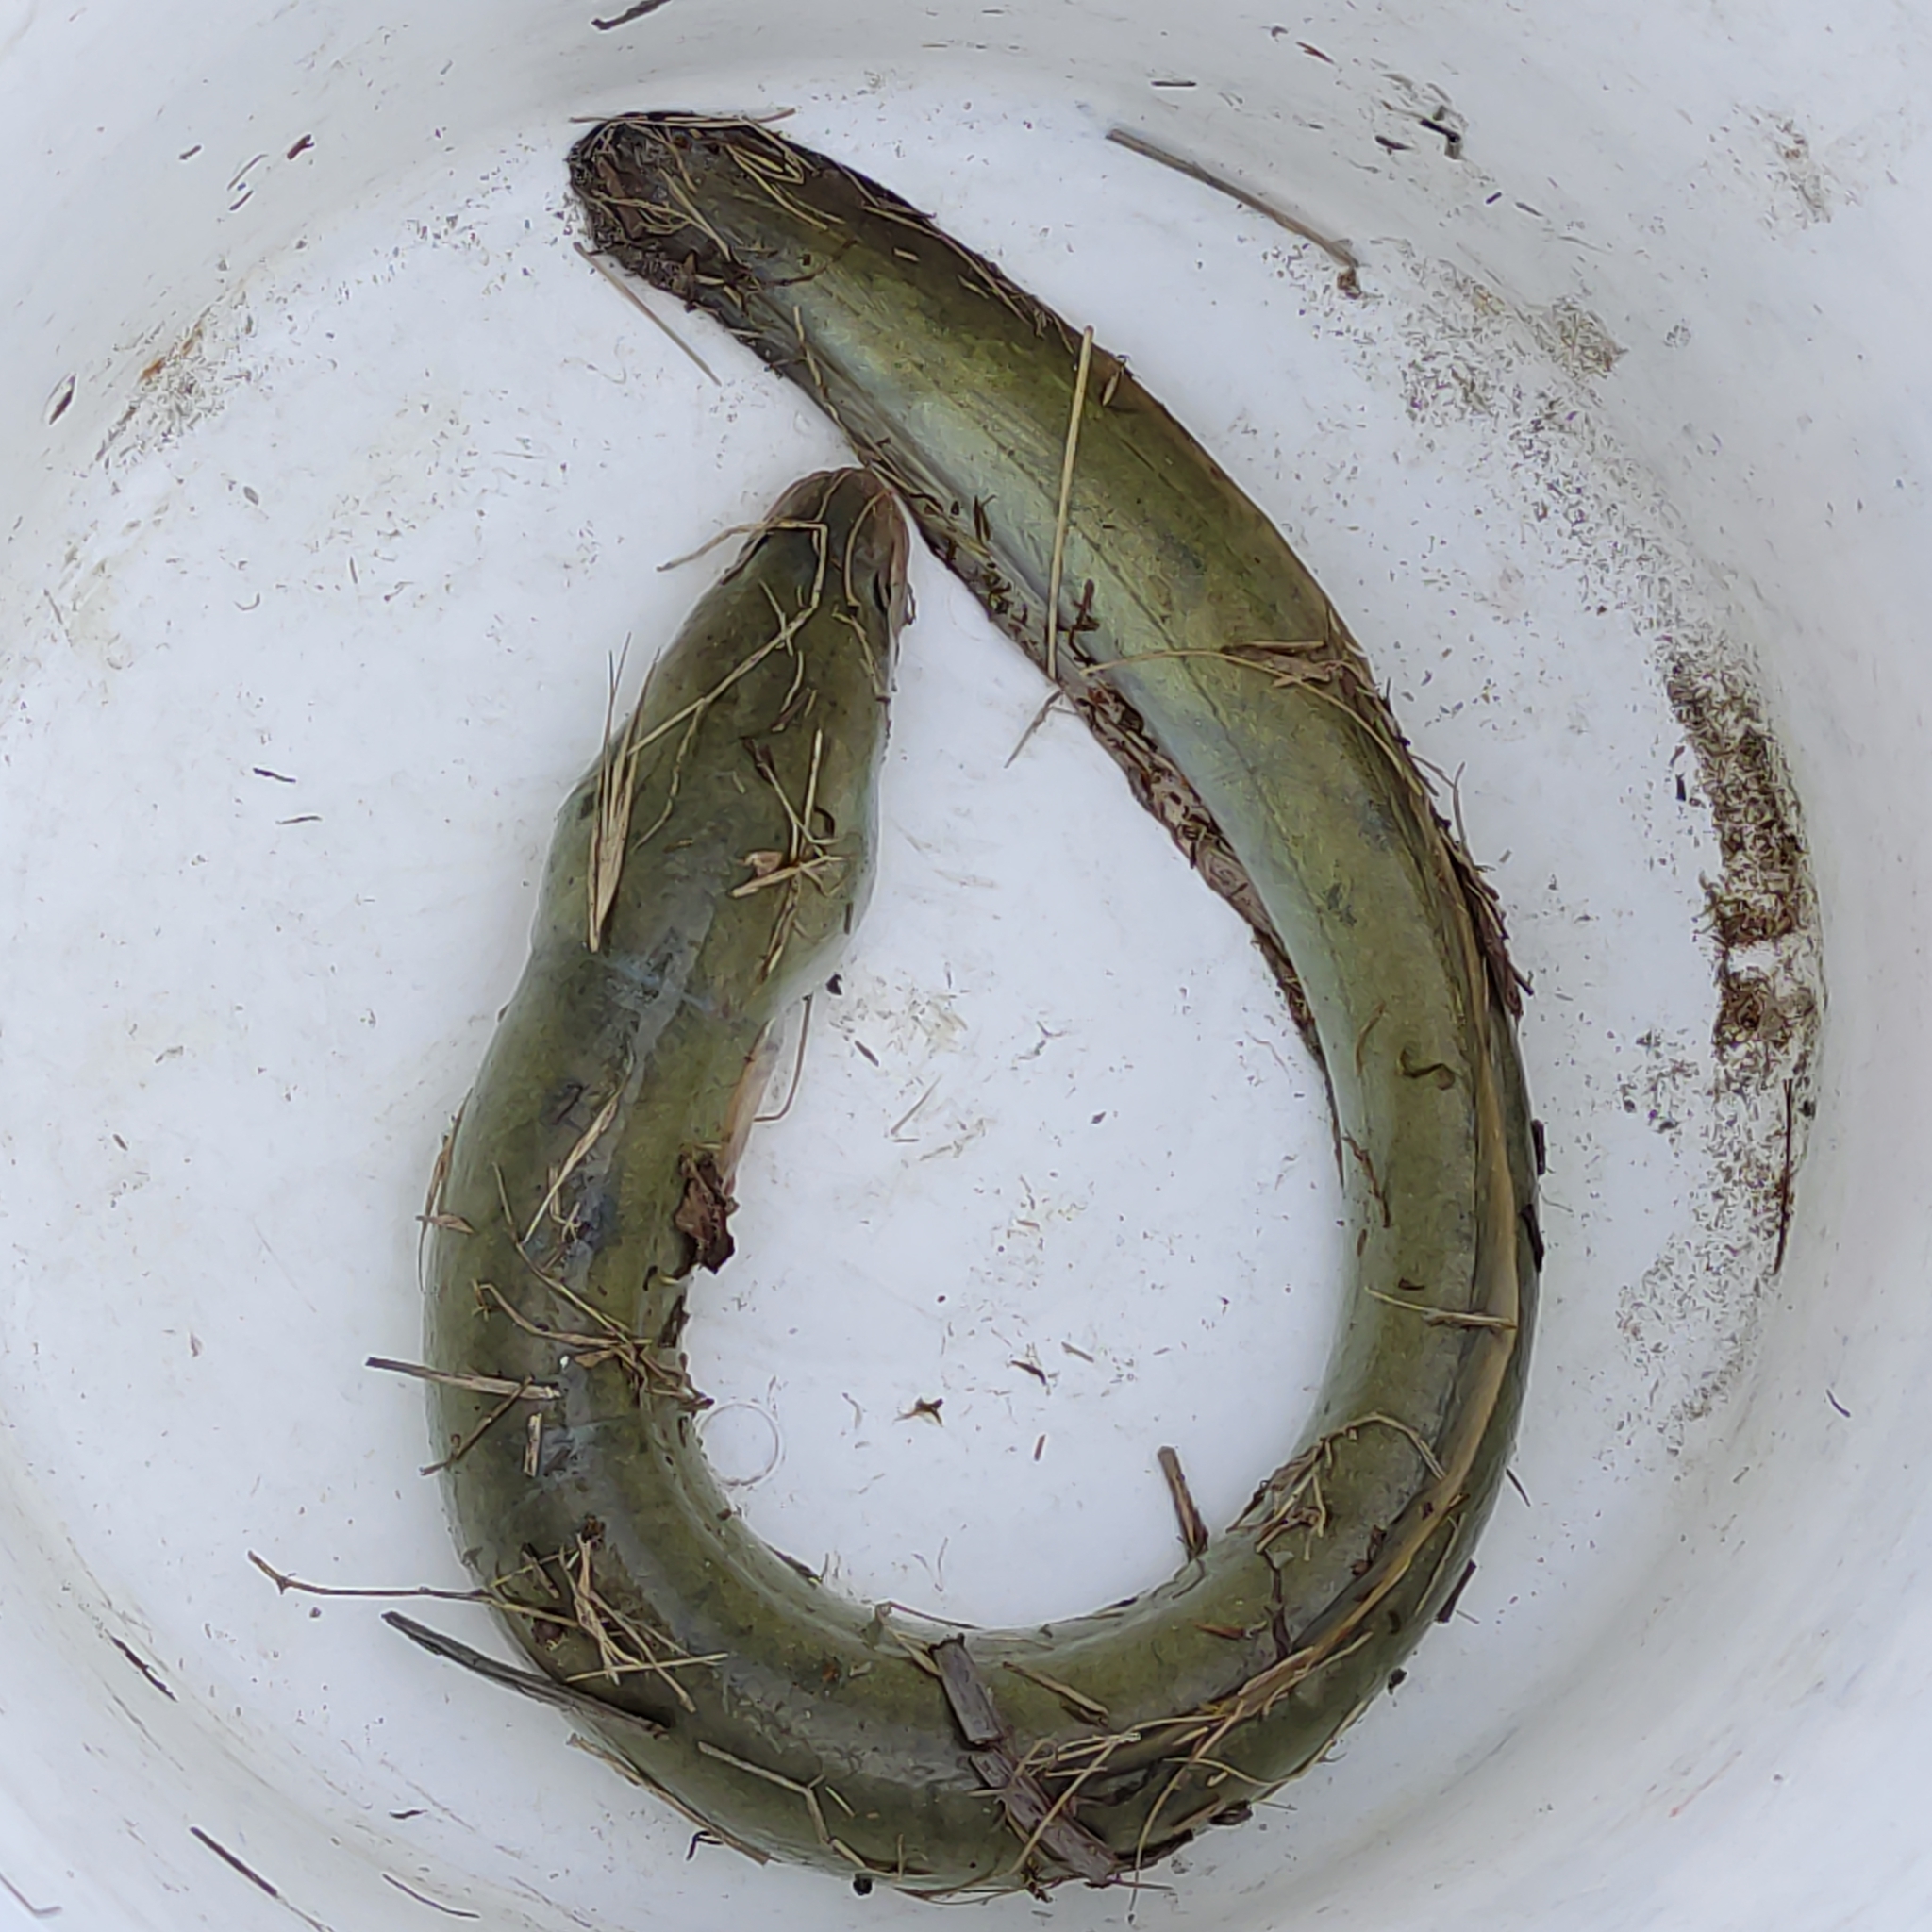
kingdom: Animalia
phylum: Chordata
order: Anguilliformes
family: Anguillidae
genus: Anguilla
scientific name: Anguilla australis
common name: Shortfin eel
